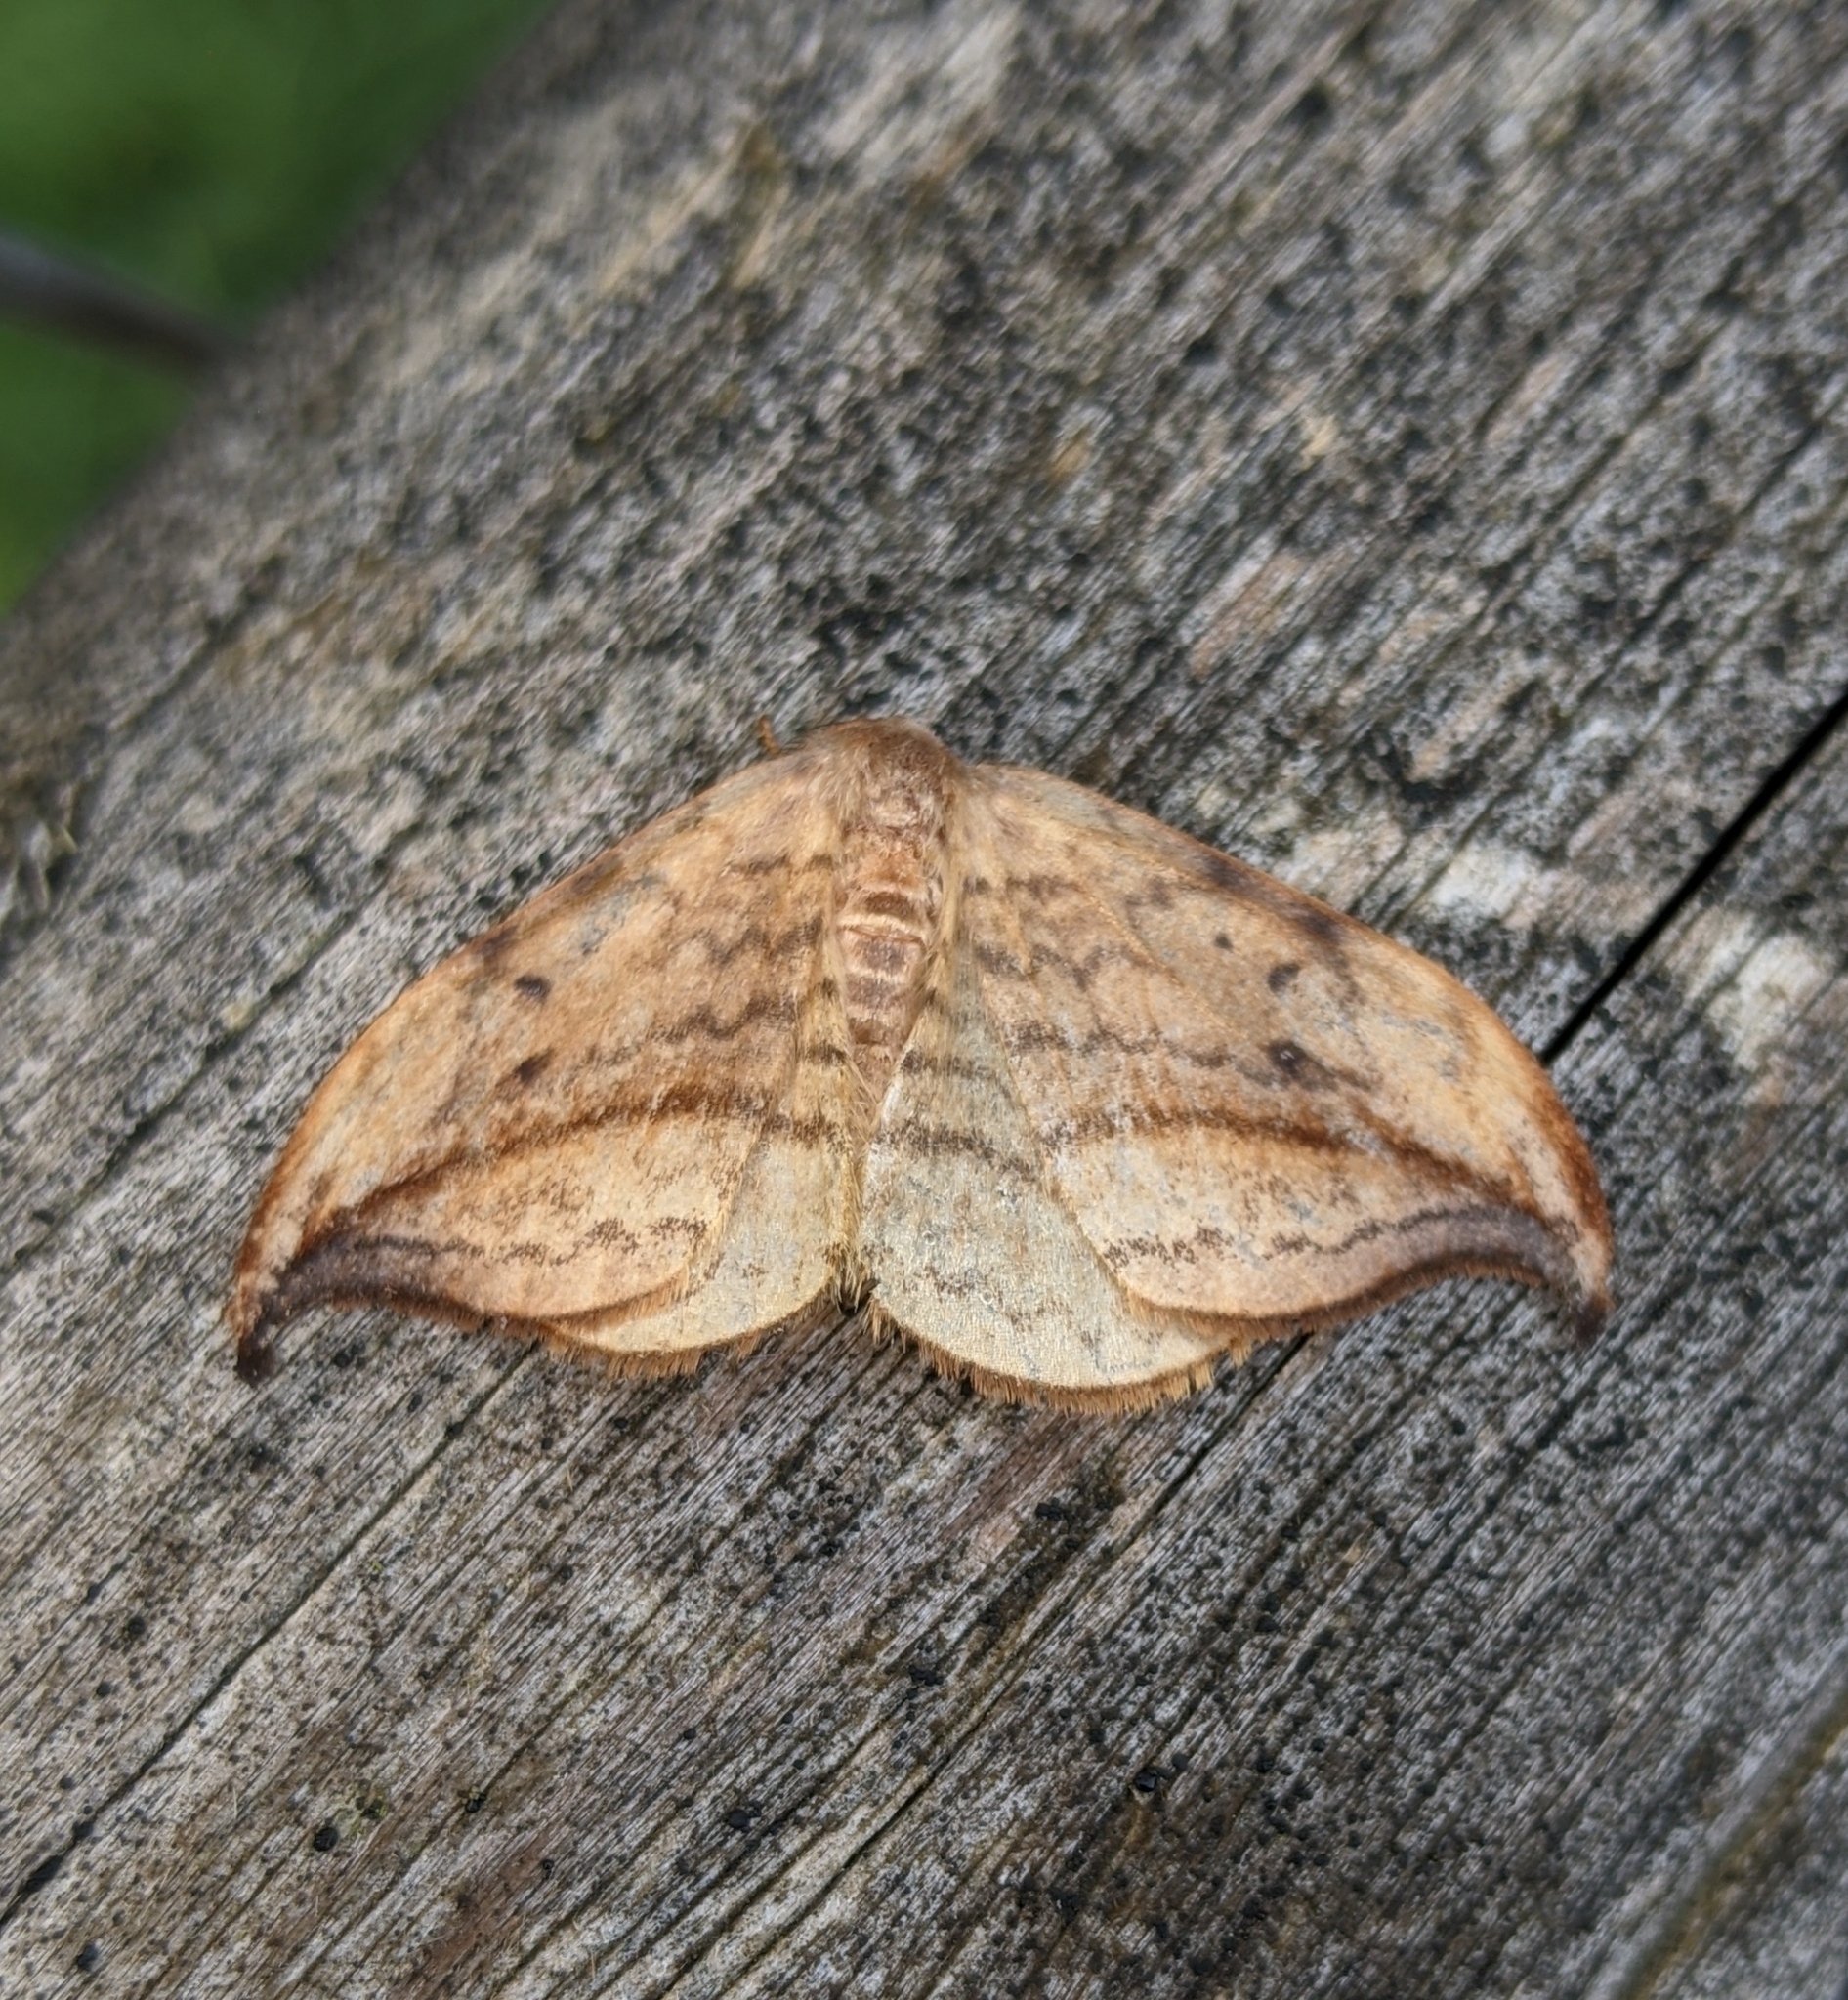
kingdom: Animalia
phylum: Arthropoda
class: Insecta
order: Lepidoptera
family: Drepanidae
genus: Drepana
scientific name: Drepana arcuata
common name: Arched hooktip moth
